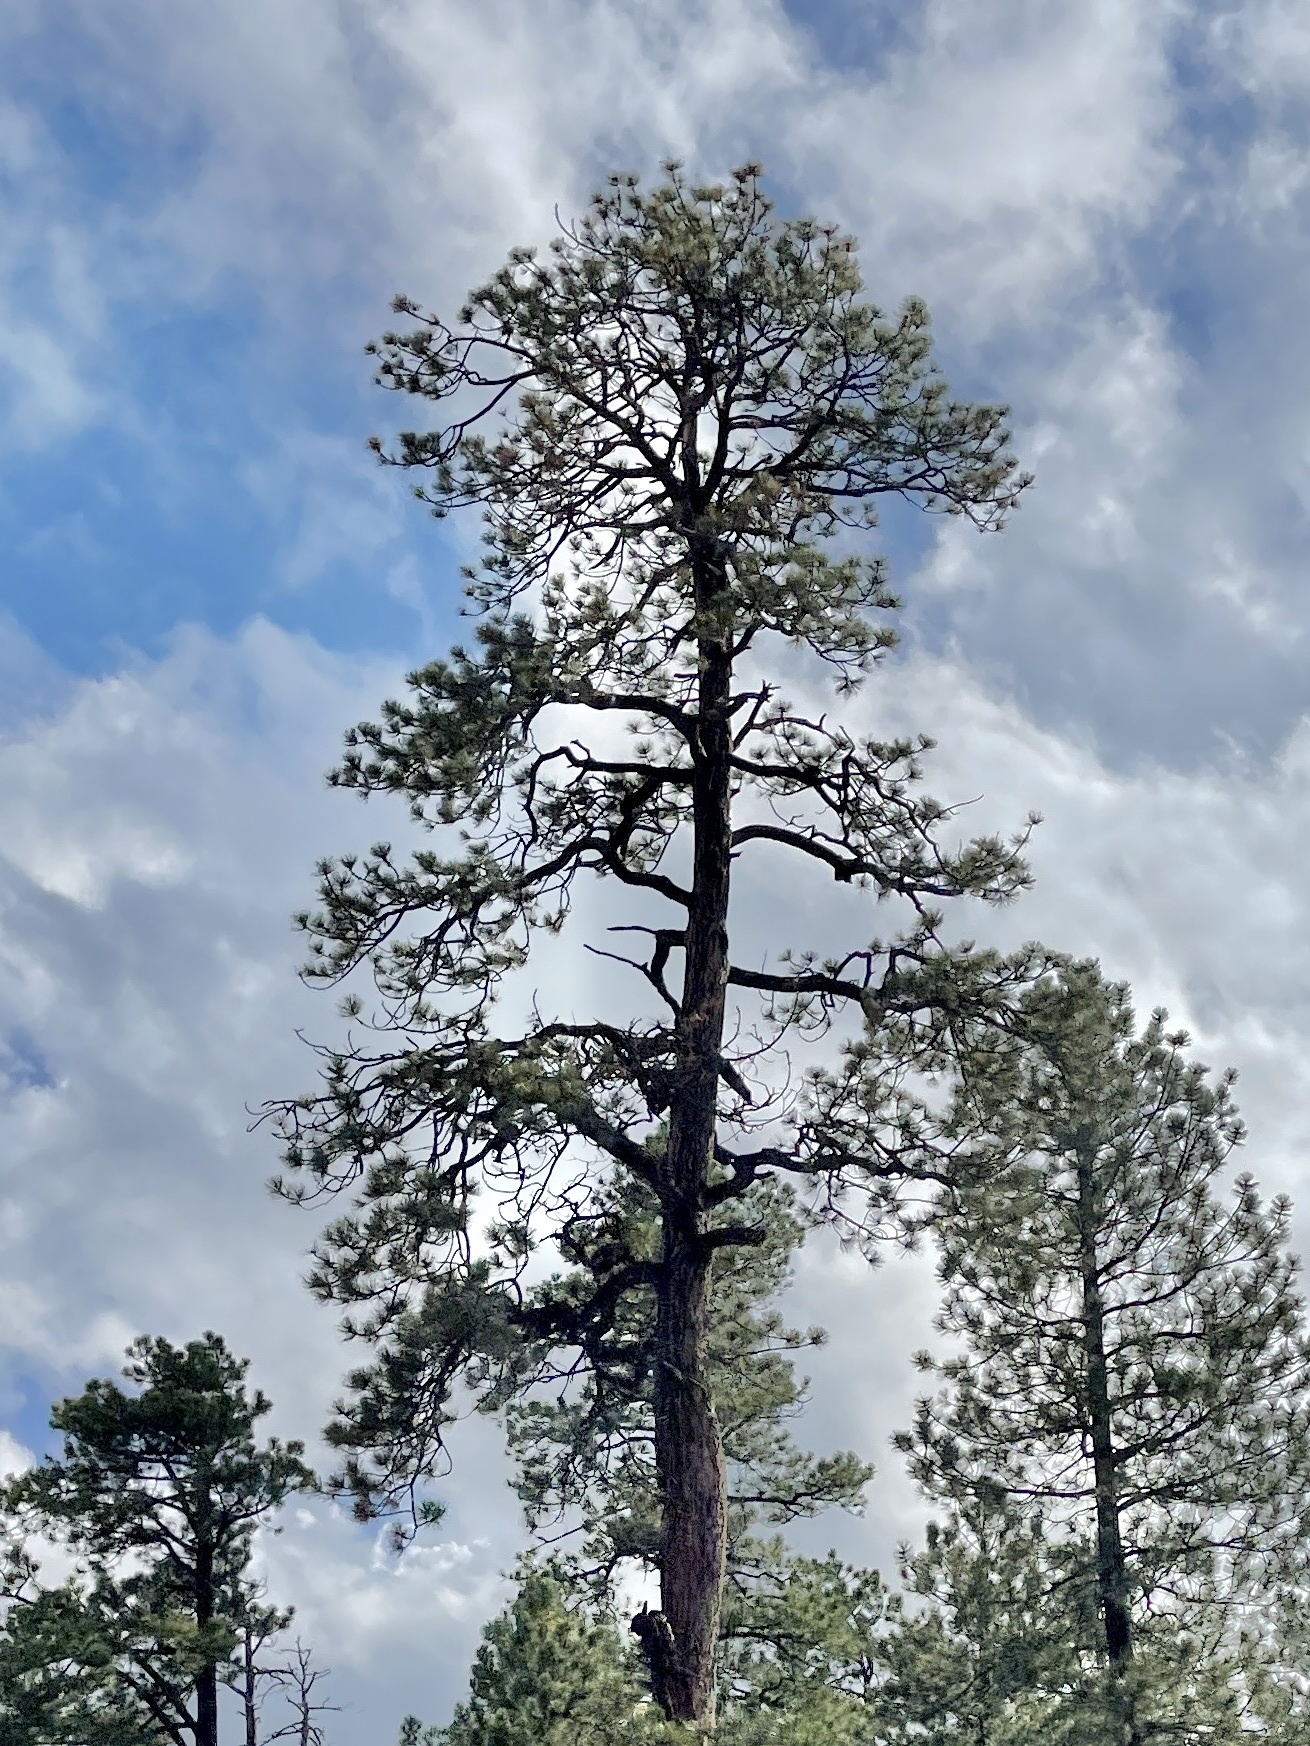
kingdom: Plantae
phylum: Tracheophyta
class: Pinopsida
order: Pinales
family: Pinaceae
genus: Pinus
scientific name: Pinus ponderosa
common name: Western yellow-pine
